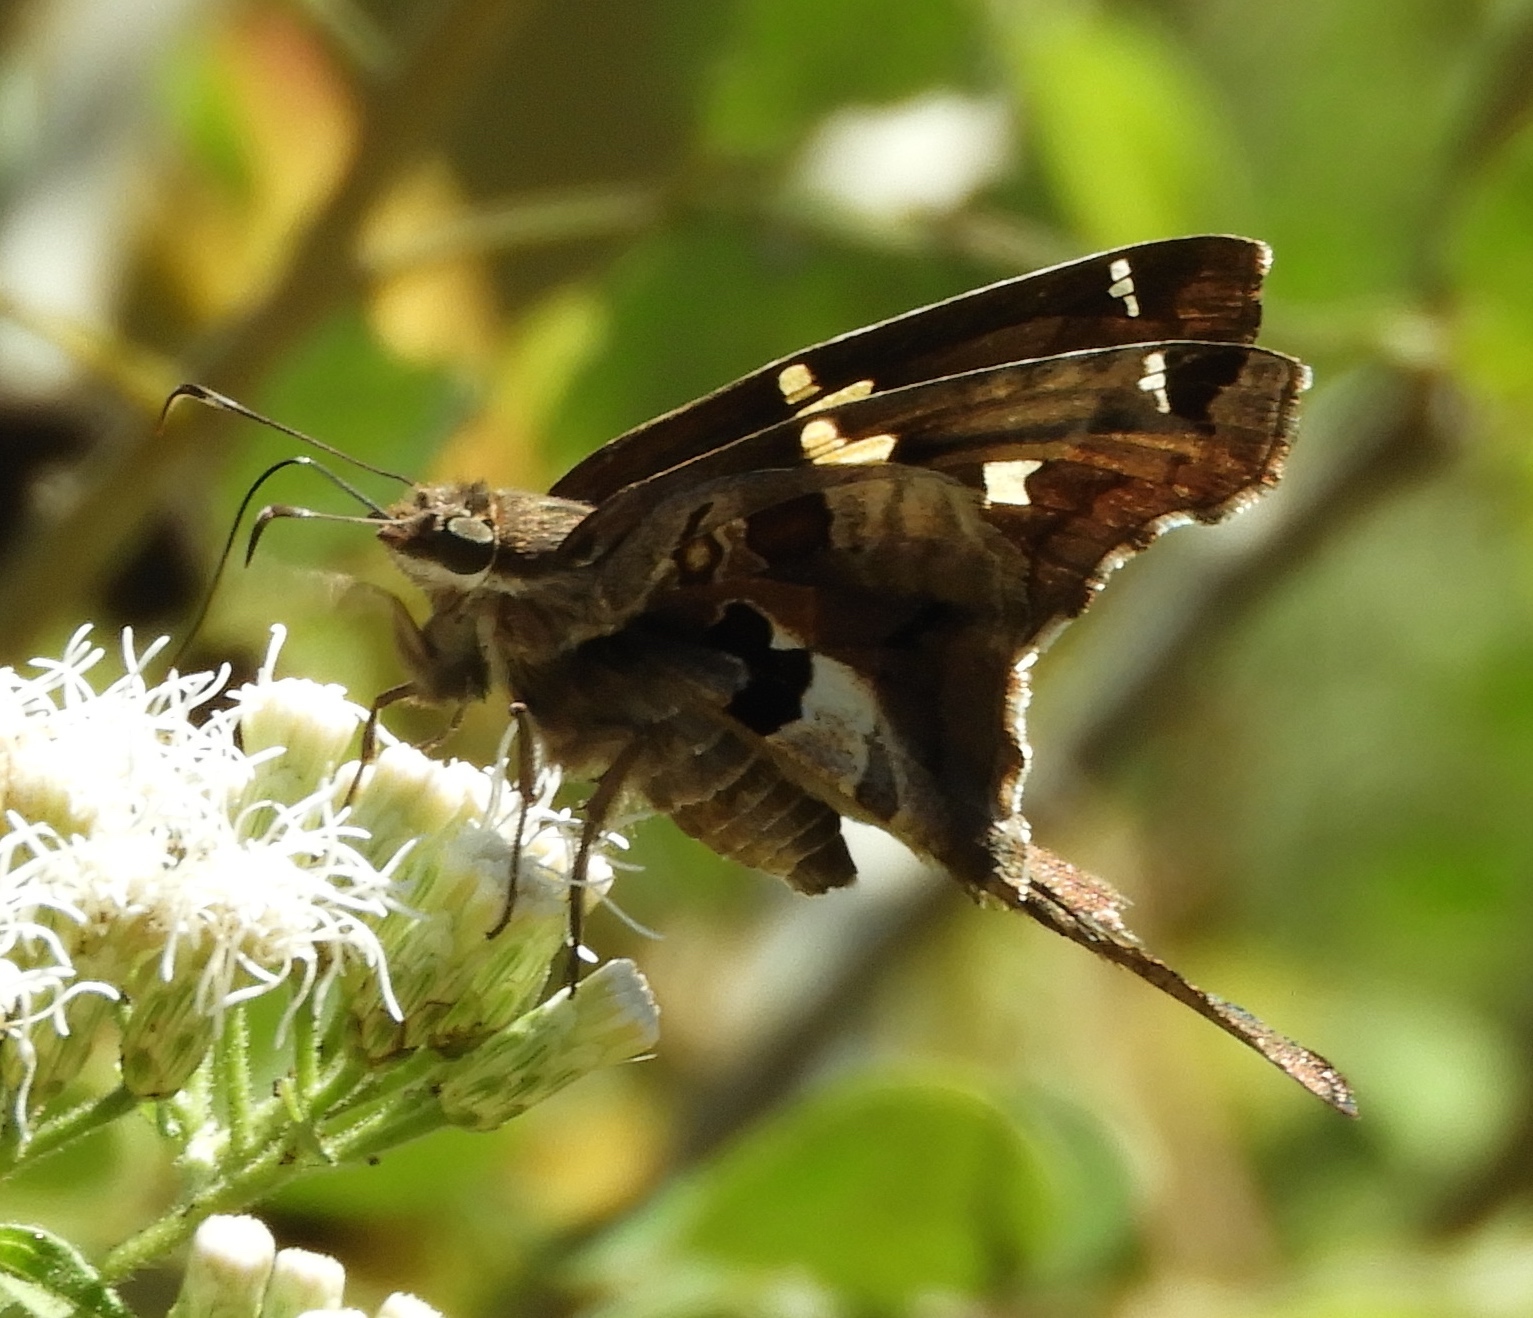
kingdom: Animalia
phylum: Arthropoda
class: Insecta
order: Lepidoptera
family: Hesperiidae
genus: Chioides
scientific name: Chioides zilpa
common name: Zilpa longtail
